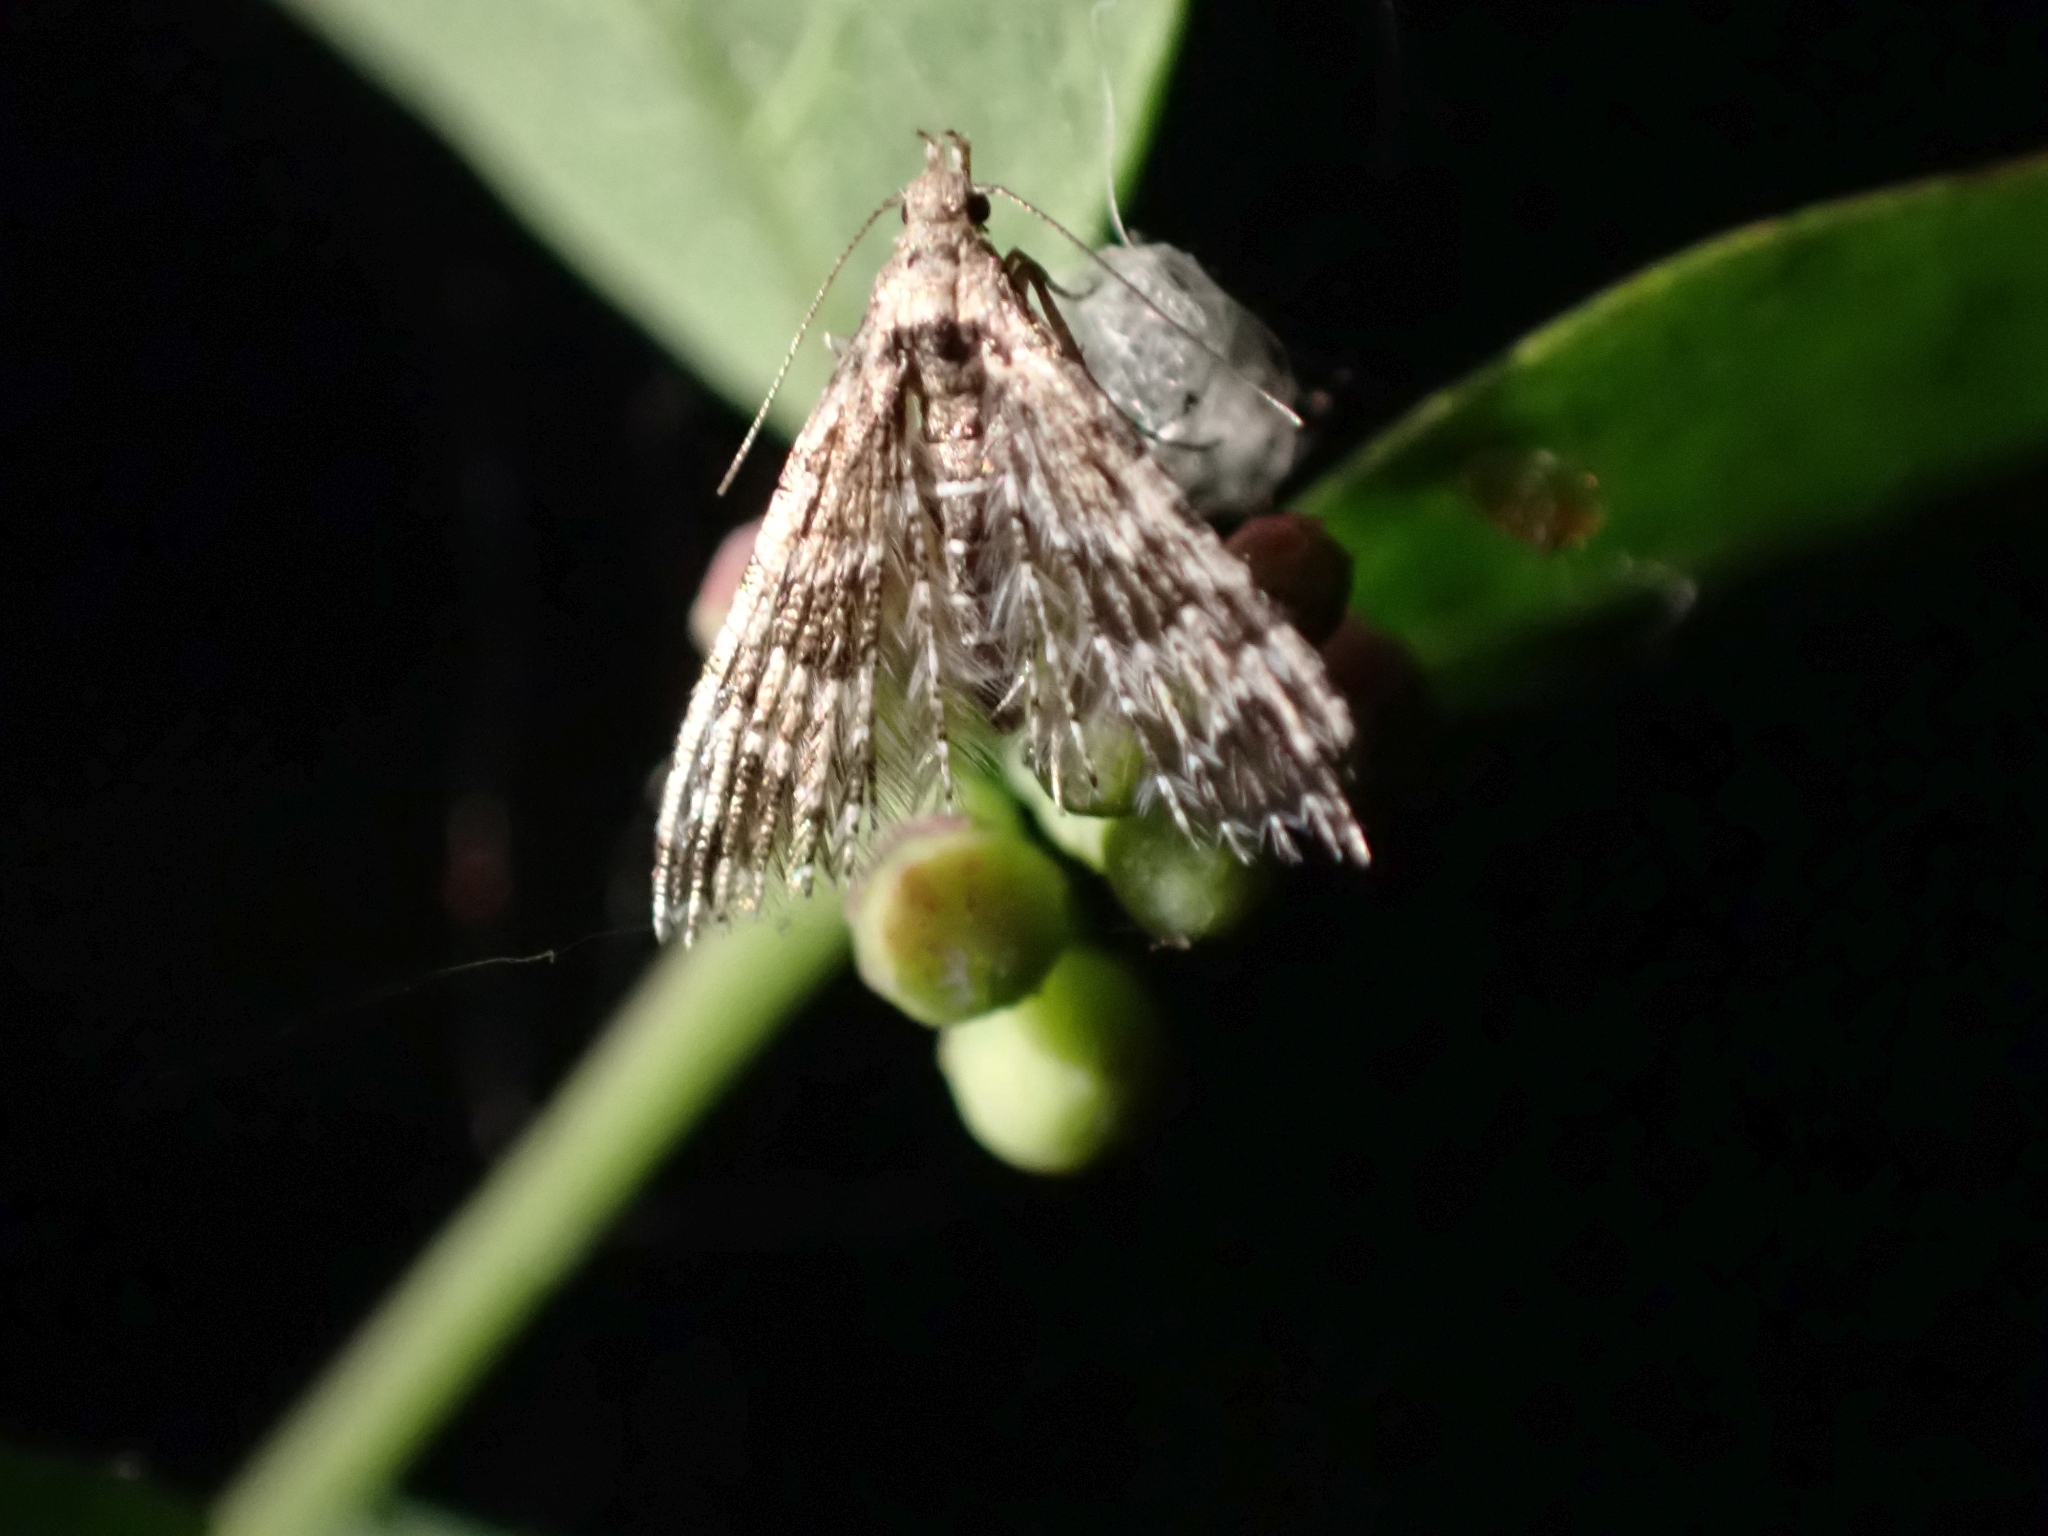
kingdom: Animalia
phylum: Arthropoda
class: Insecta
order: Lepidoptera
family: Alucitidae
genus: Alucita
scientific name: Alucita montana
